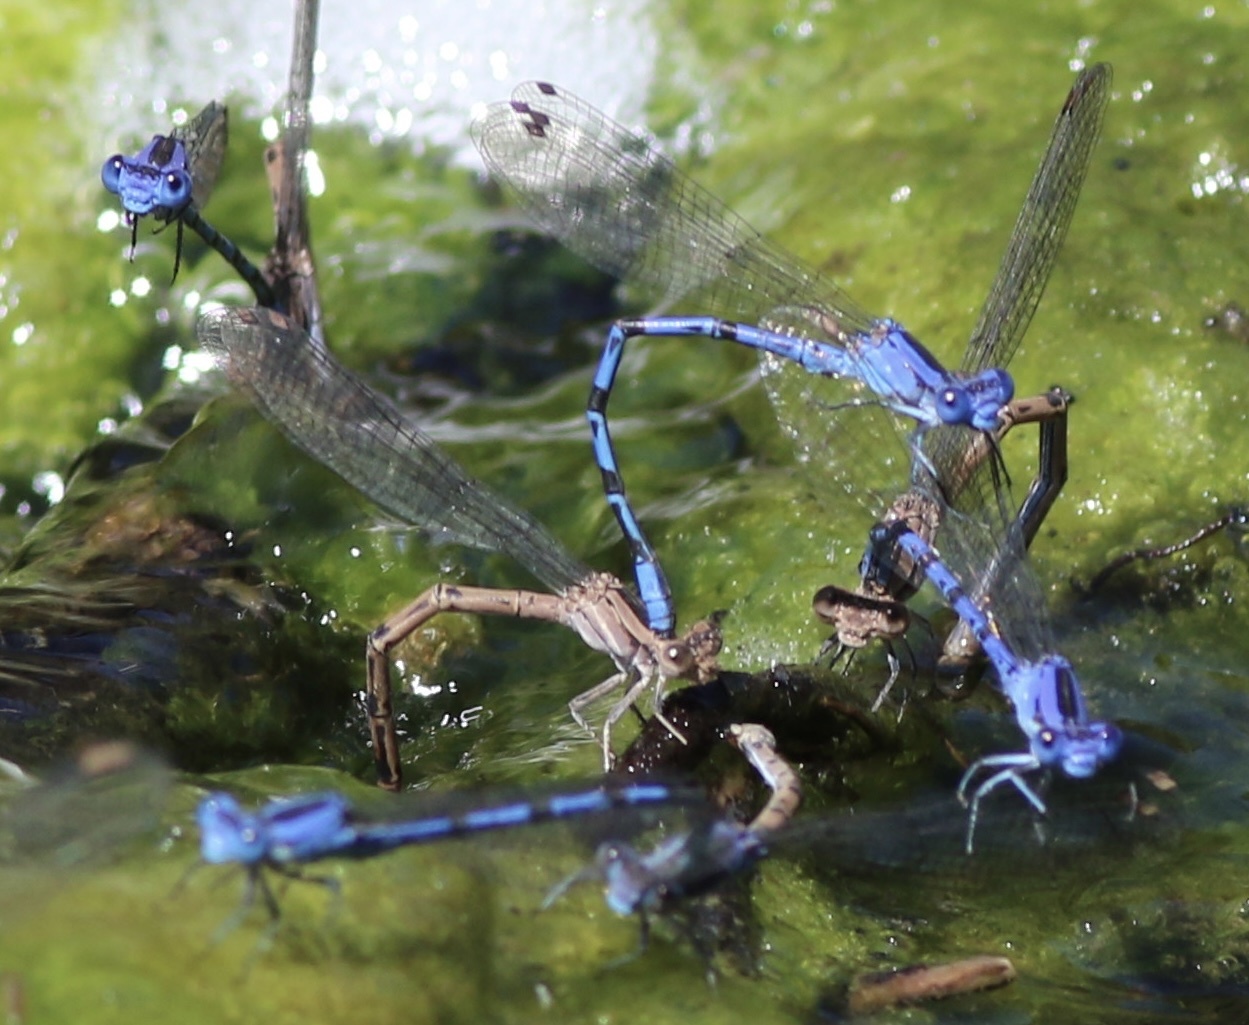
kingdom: Animalia
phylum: Arthropoda
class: Insecta
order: Odonata
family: Coenagrionidae
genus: Argia
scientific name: Argia vivida
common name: Vivid dancer
